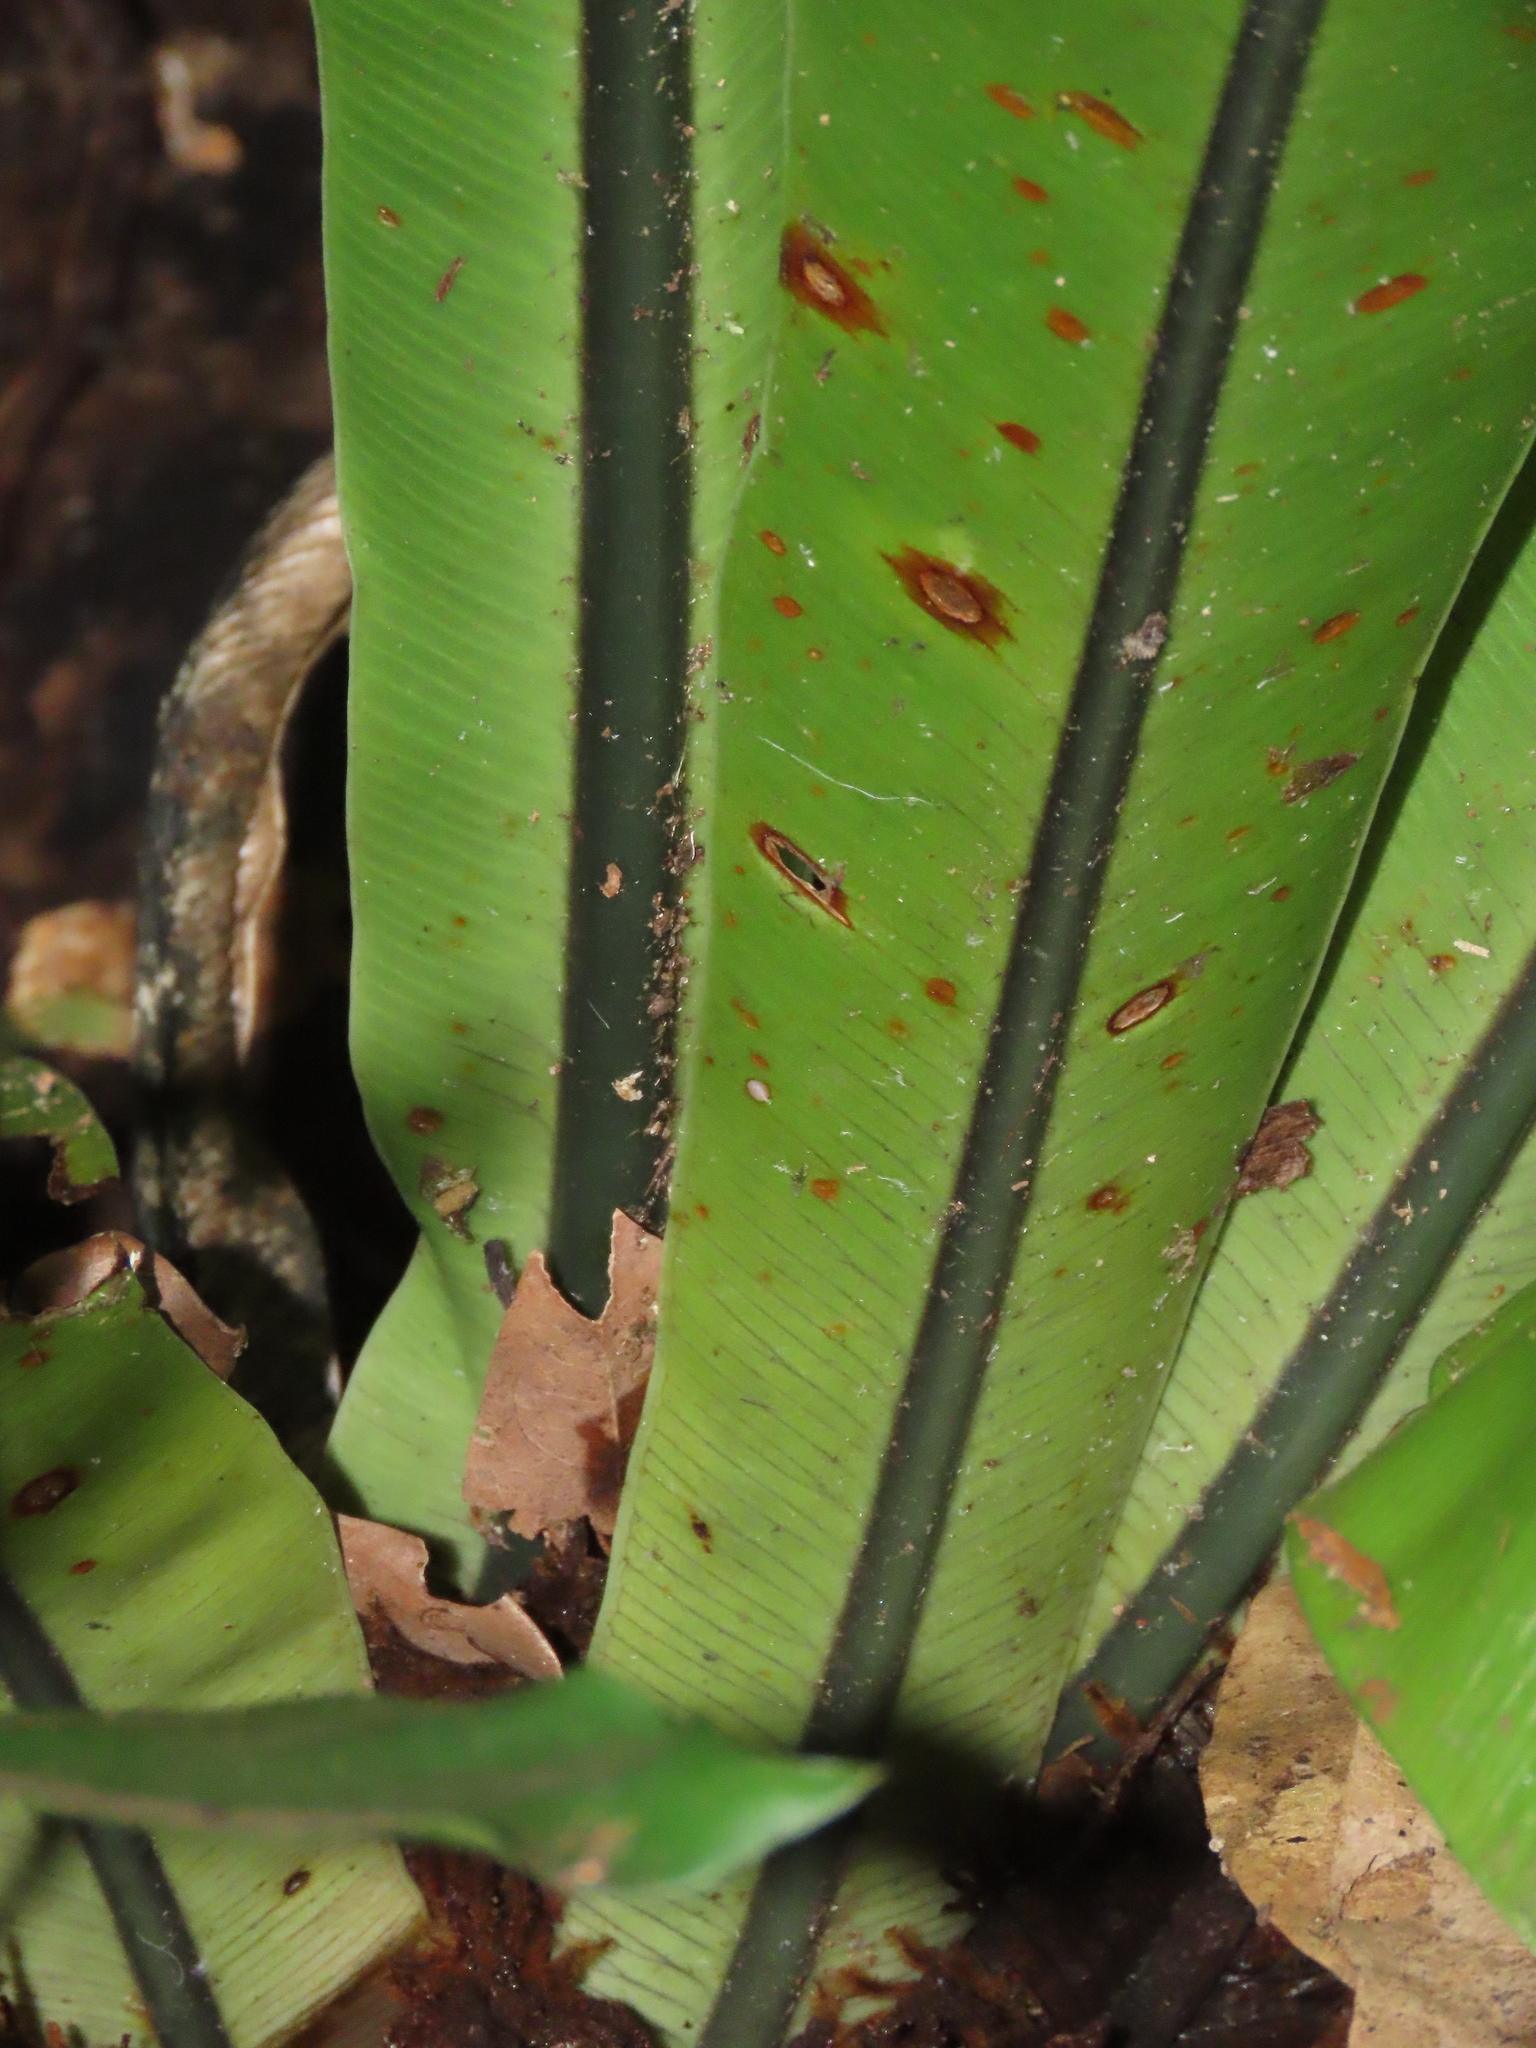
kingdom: Plantae
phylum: Tracheophyta
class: Polypodiopsida
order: Polypodiales
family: Aspleniaceae
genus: Asplenium
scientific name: Asplenium nidus
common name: Bird's-nest fern
